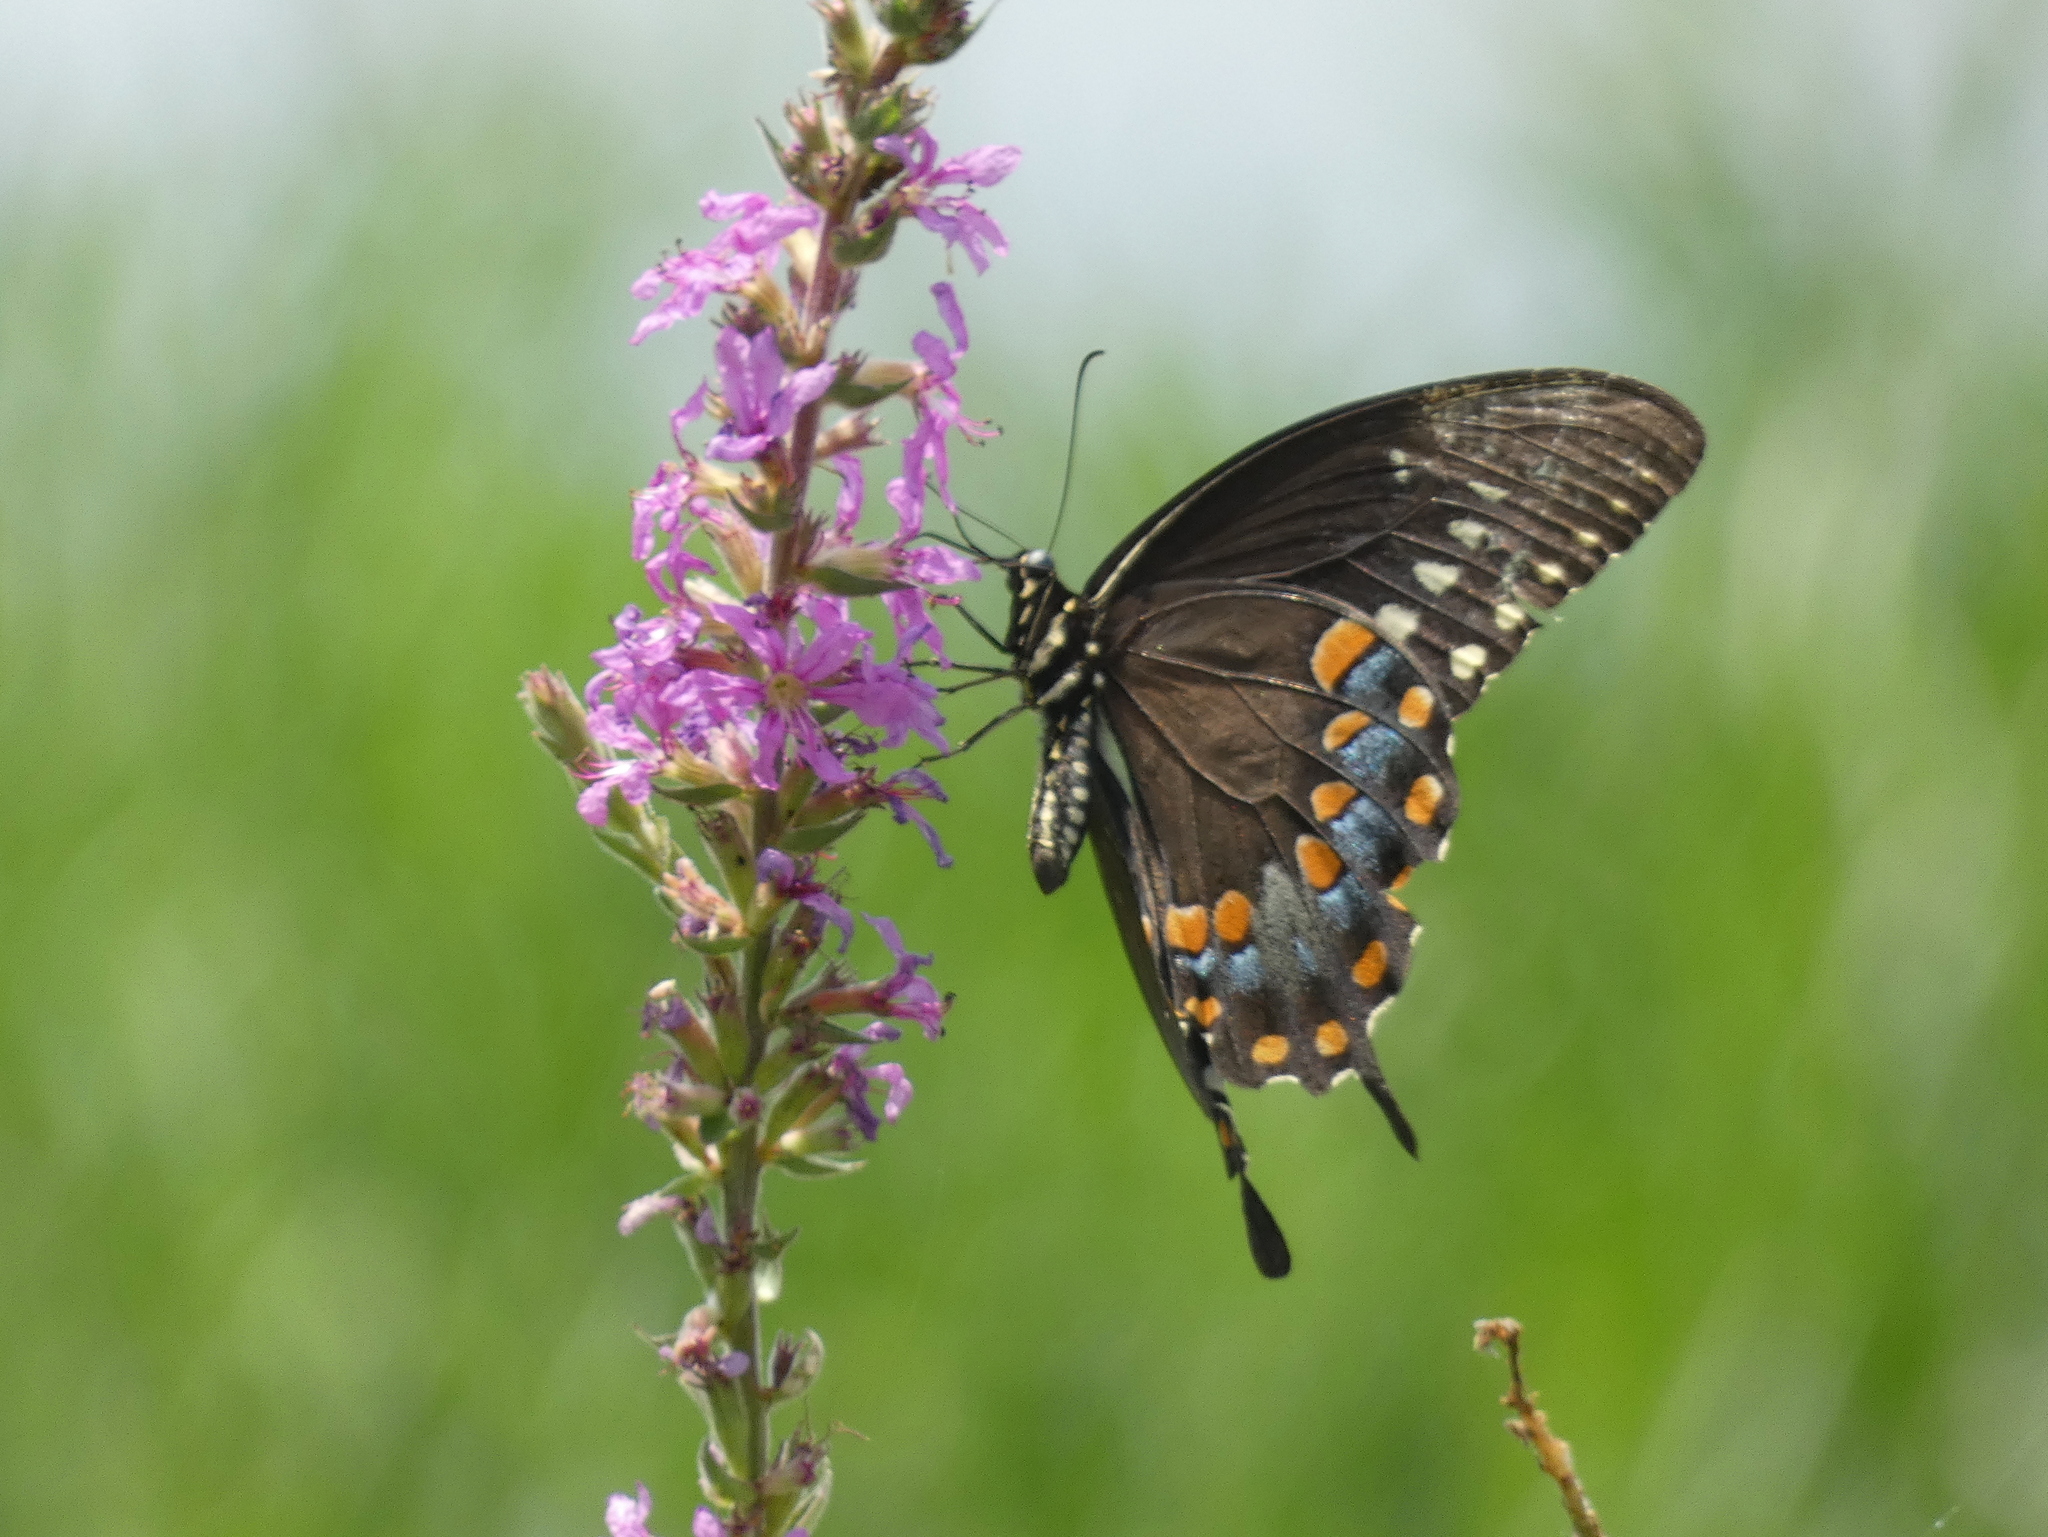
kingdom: Animalia
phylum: Arthropoda
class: Insecta
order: Lepidoptera
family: Papilionidae
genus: Papilio
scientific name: Papilio troilus
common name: Spicebush swallowtail
